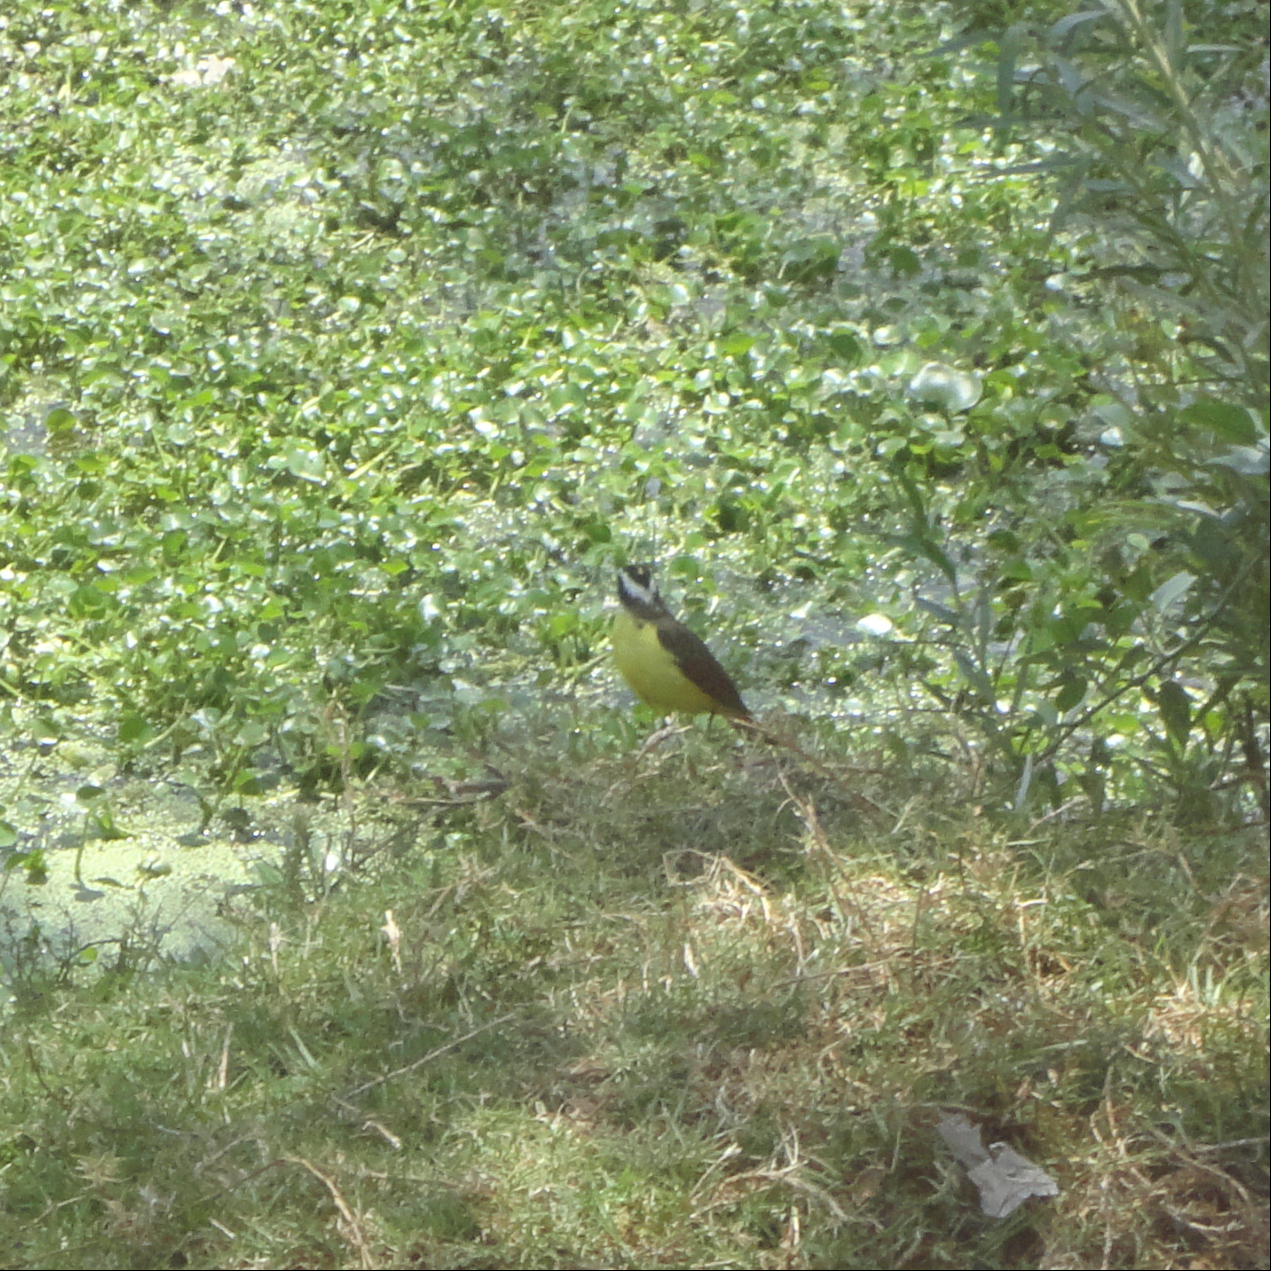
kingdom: Animalia
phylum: Chordata
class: Aves
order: Passeriformes
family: Tyrannidae
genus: Pitangus
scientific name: Pitangus sulphuratus
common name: Great kiskadee
